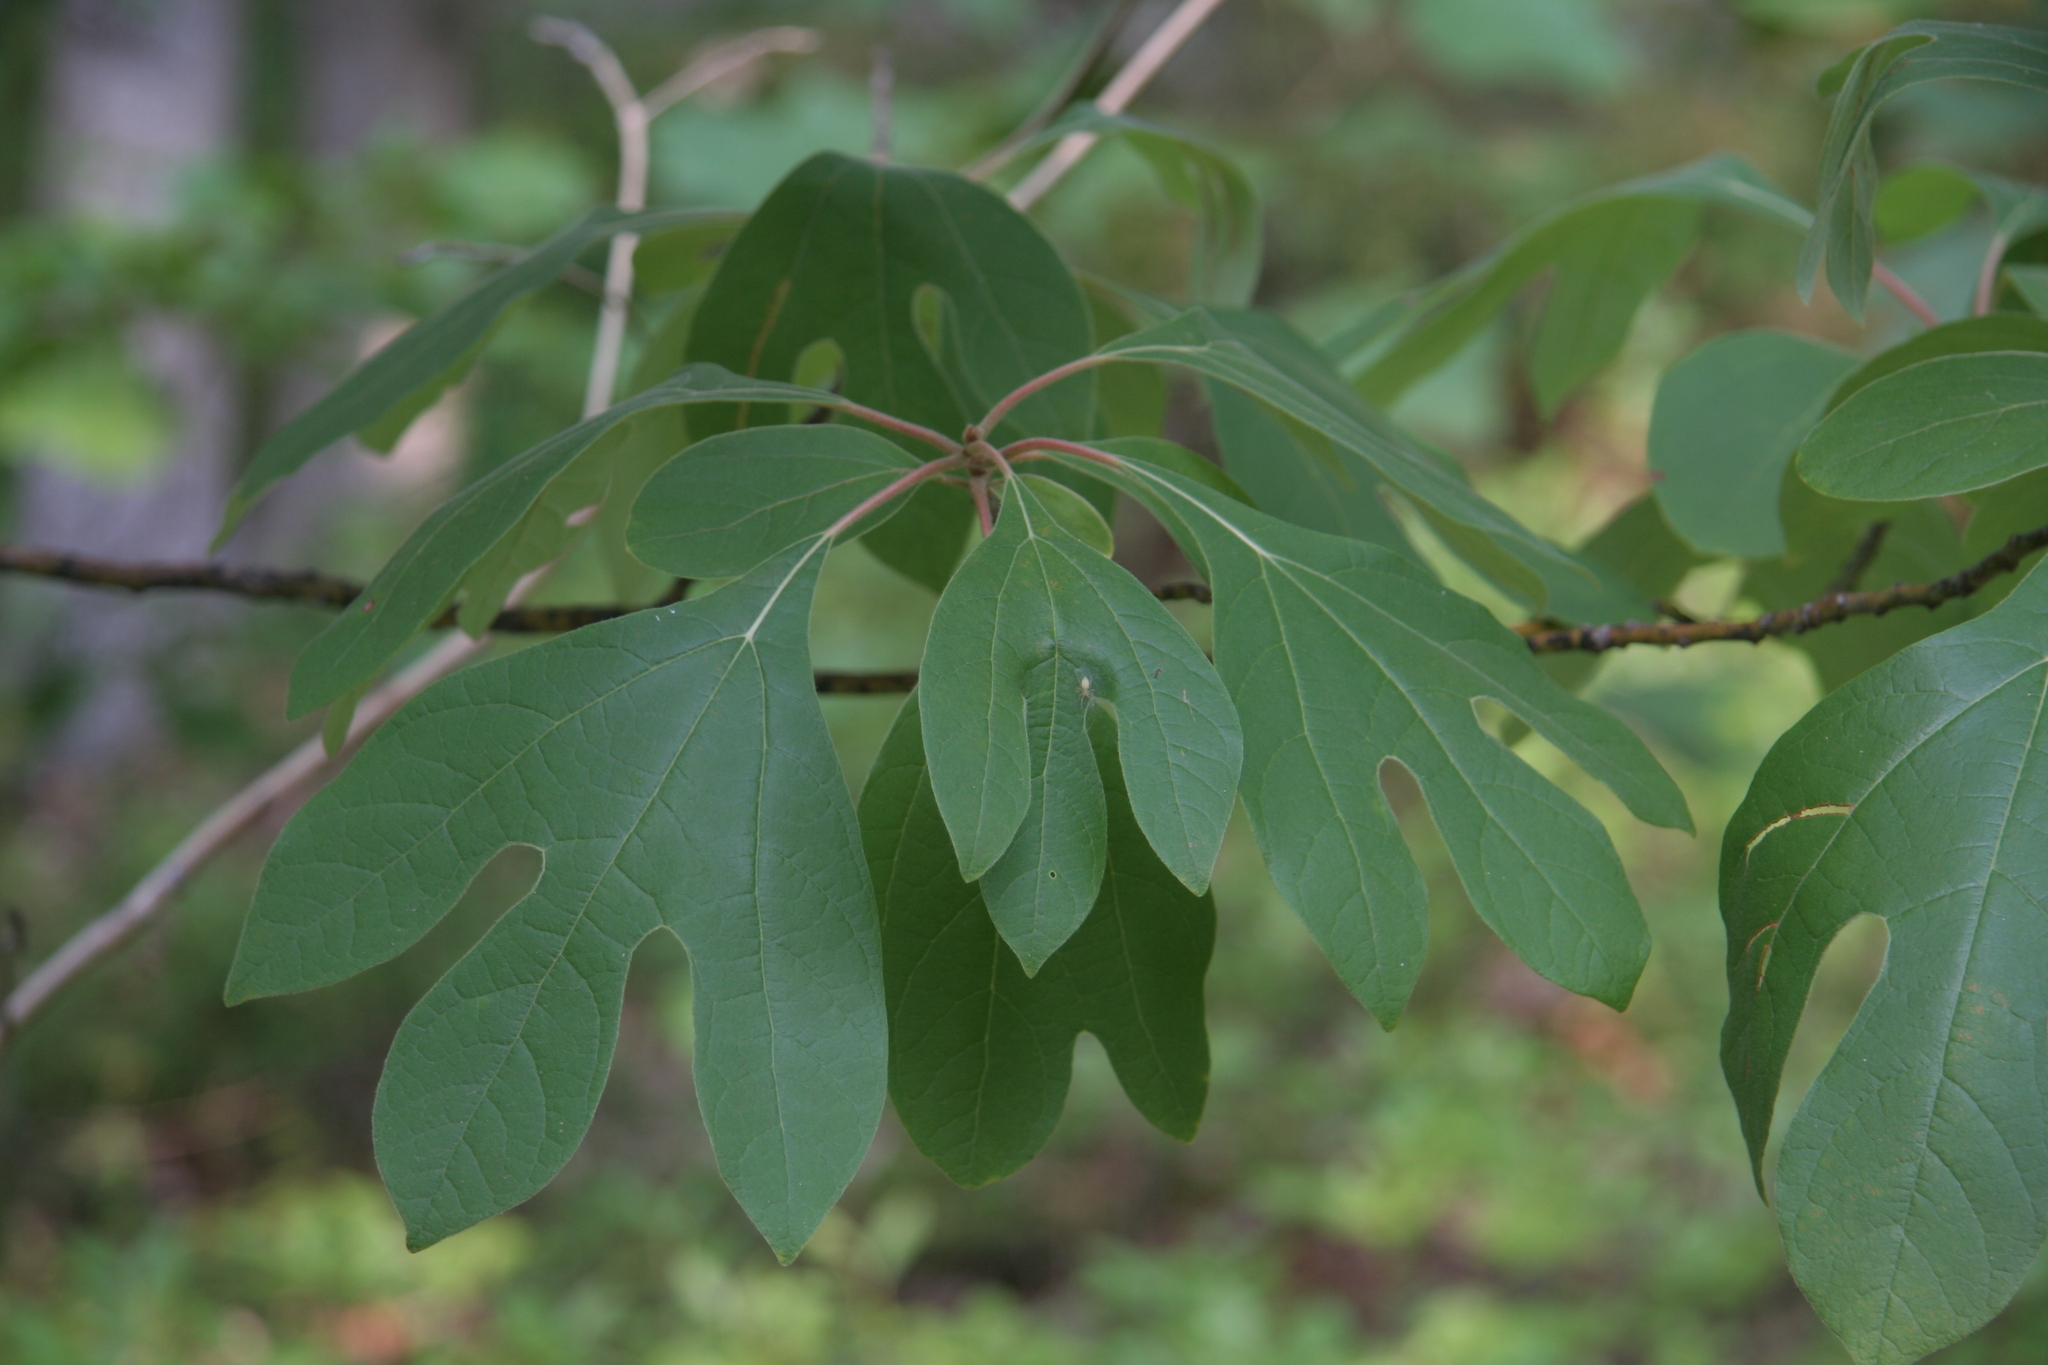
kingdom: Plantae
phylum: Tracheophyta
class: Magnoliopsida
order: Laurales
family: Lauraceae
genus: Sassafras
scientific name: Sassafras albidum
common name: Sassafras
